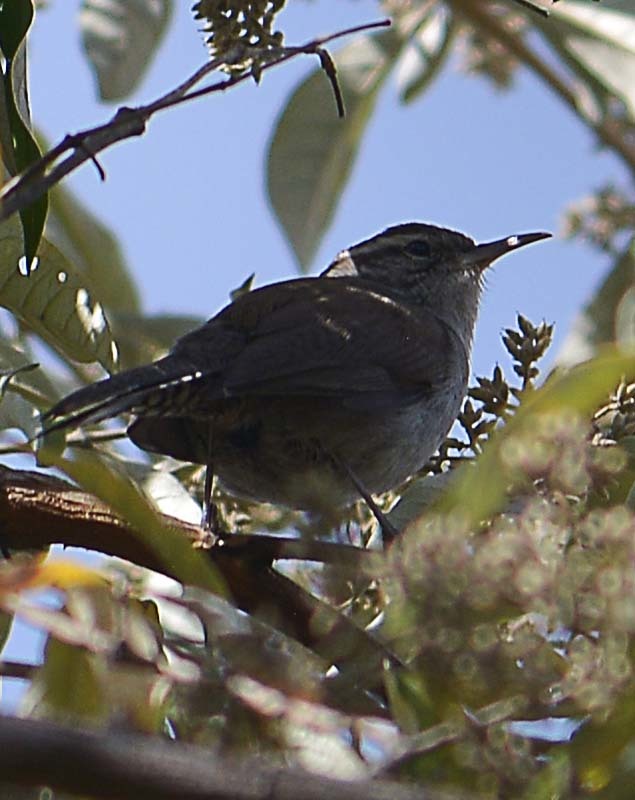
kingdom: Animalia
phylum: Chordata
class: Aves
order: Passeriformes
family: Troglodytidae
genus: Thryomanes
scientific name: Thryomanes bewickii
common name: Bewick's wren
